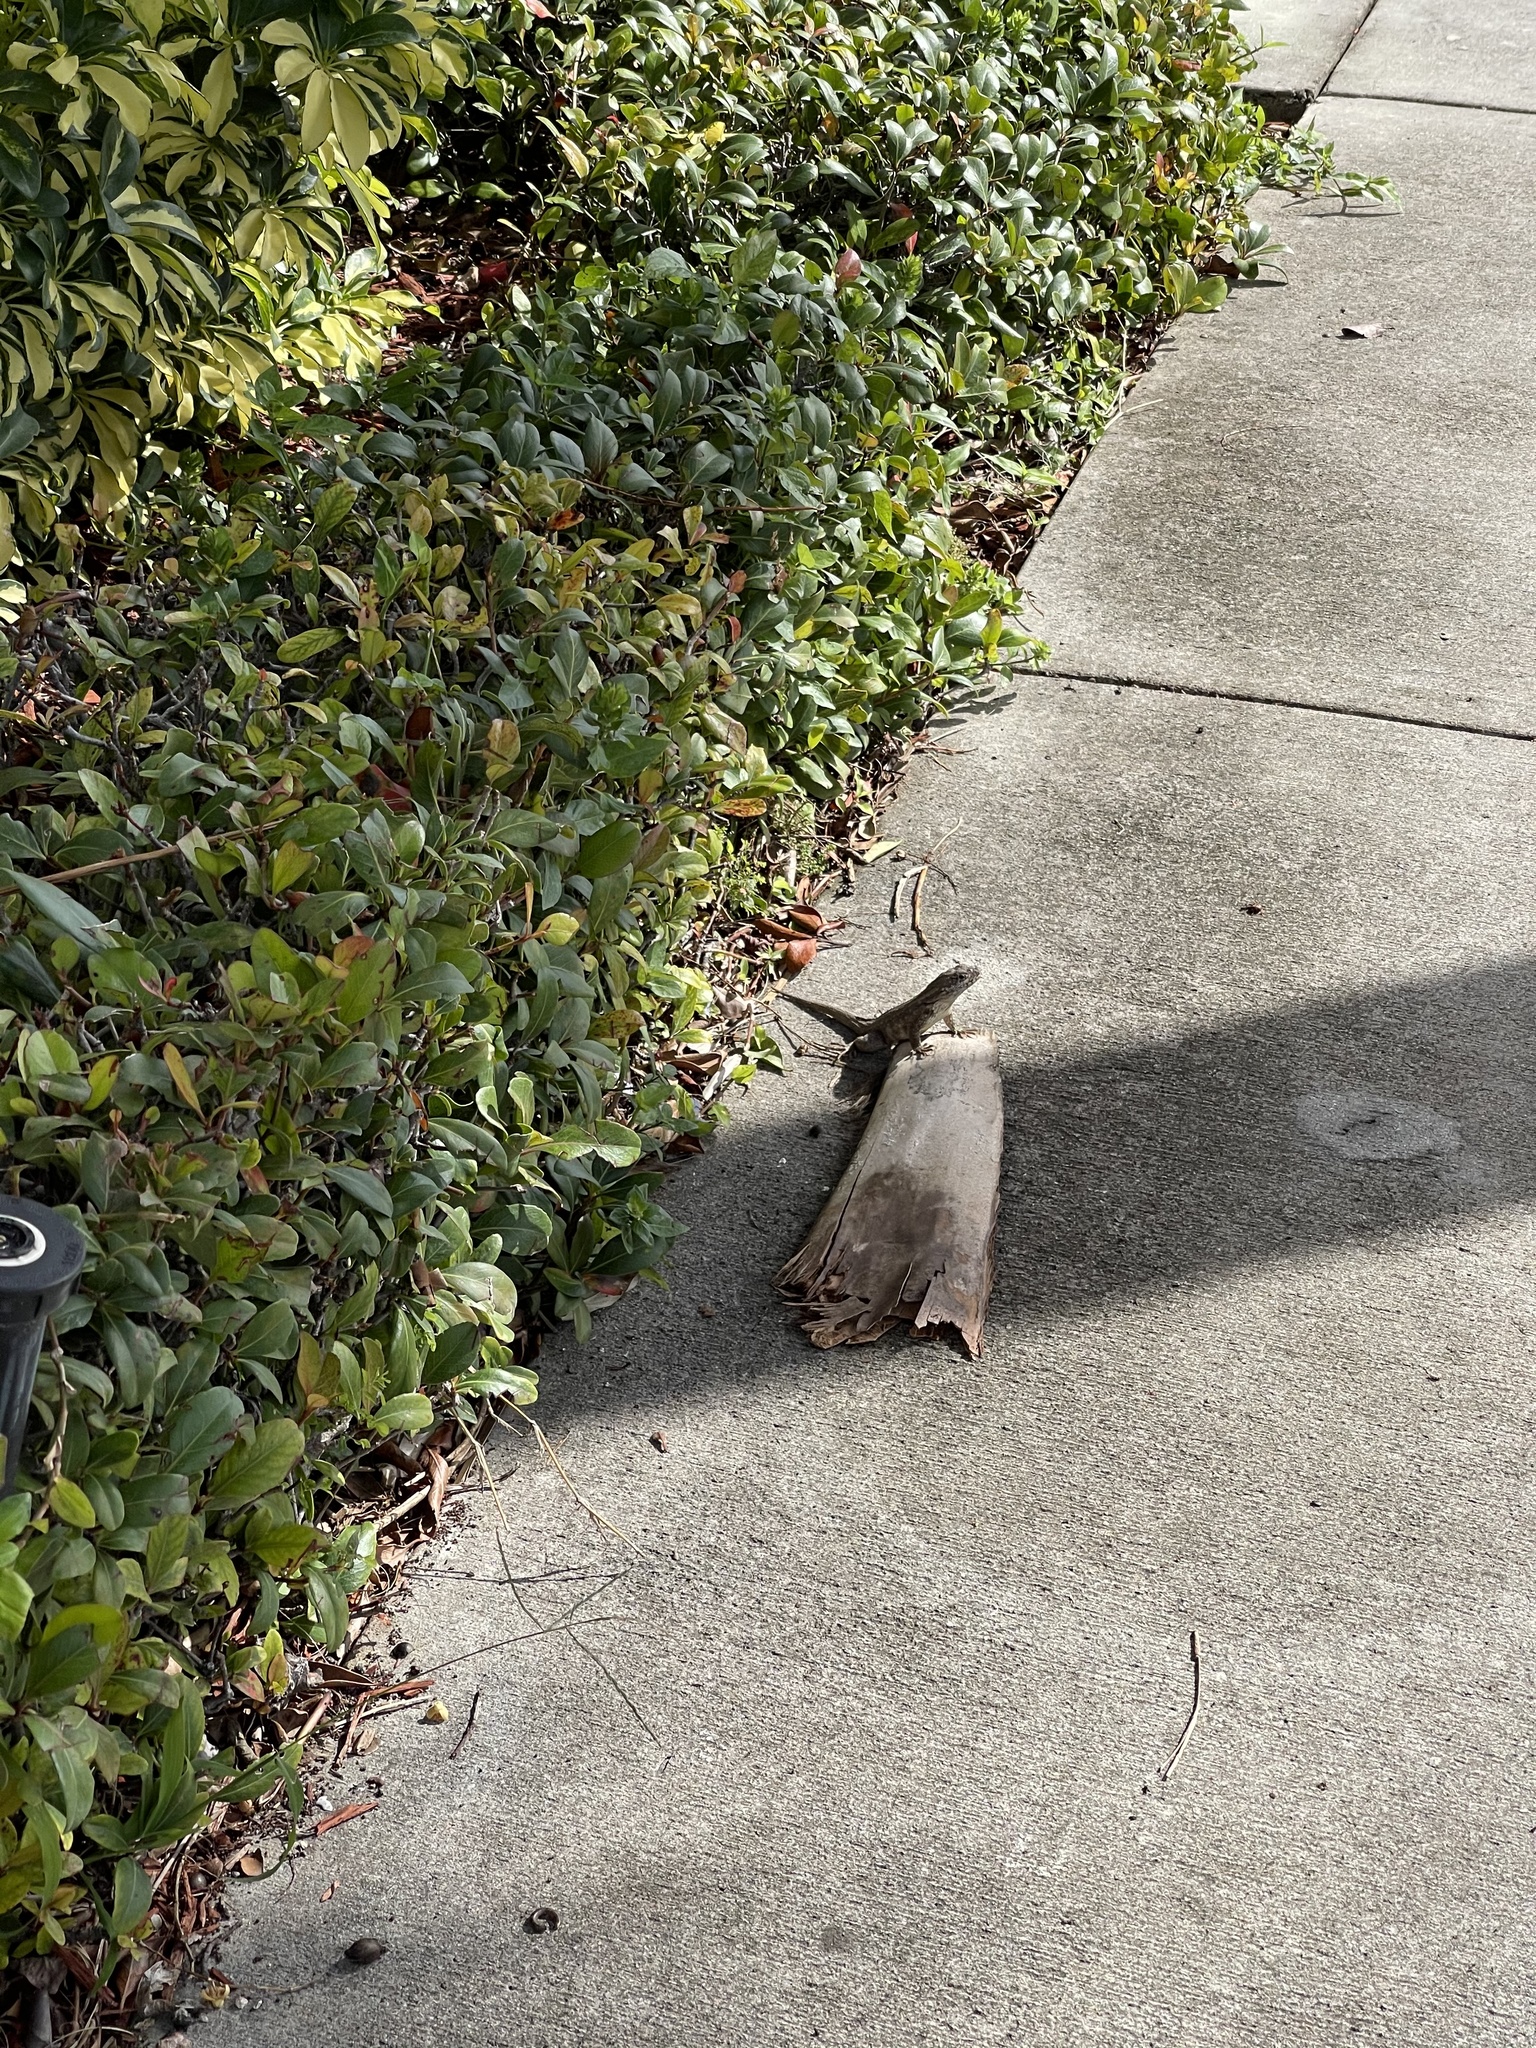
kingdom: Animalia
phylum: Chordata
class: Squamata
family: Leiocephalidae
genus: Leiocephalus
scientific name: Leiocephalus carinatus
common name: Northern curly-tailed lizard
